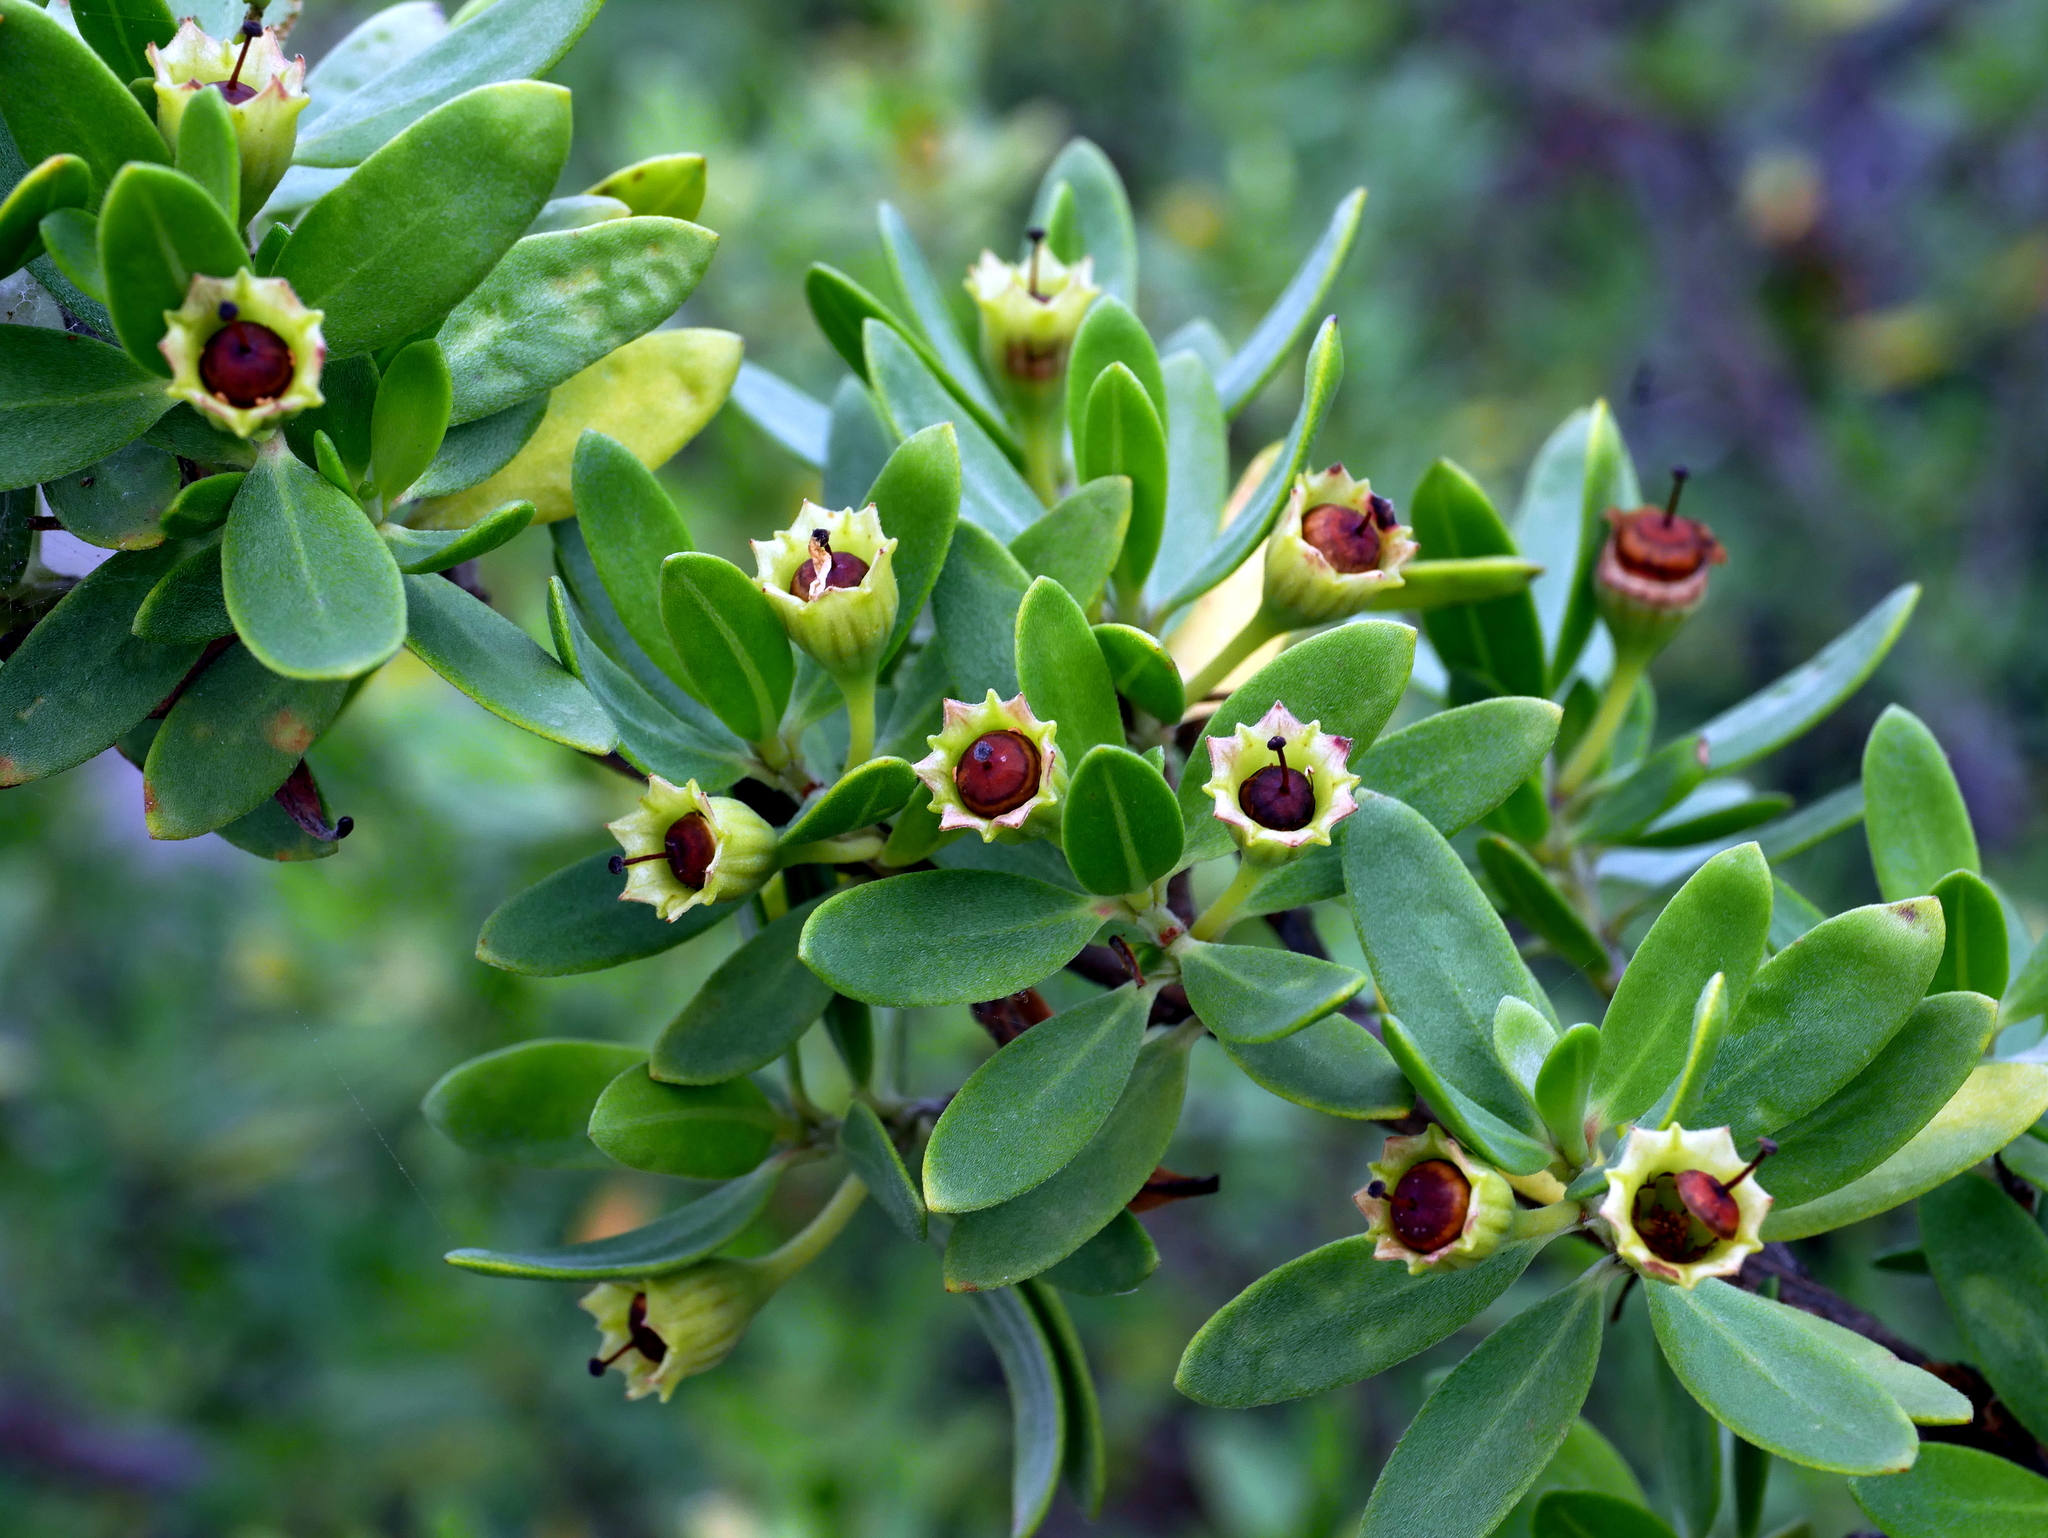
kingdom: Plantae
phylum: Tracheophyta
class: Magnoliopsida
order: Myrtales
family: Lythraceae
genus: Pemphis
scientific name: Pemphis acidula
